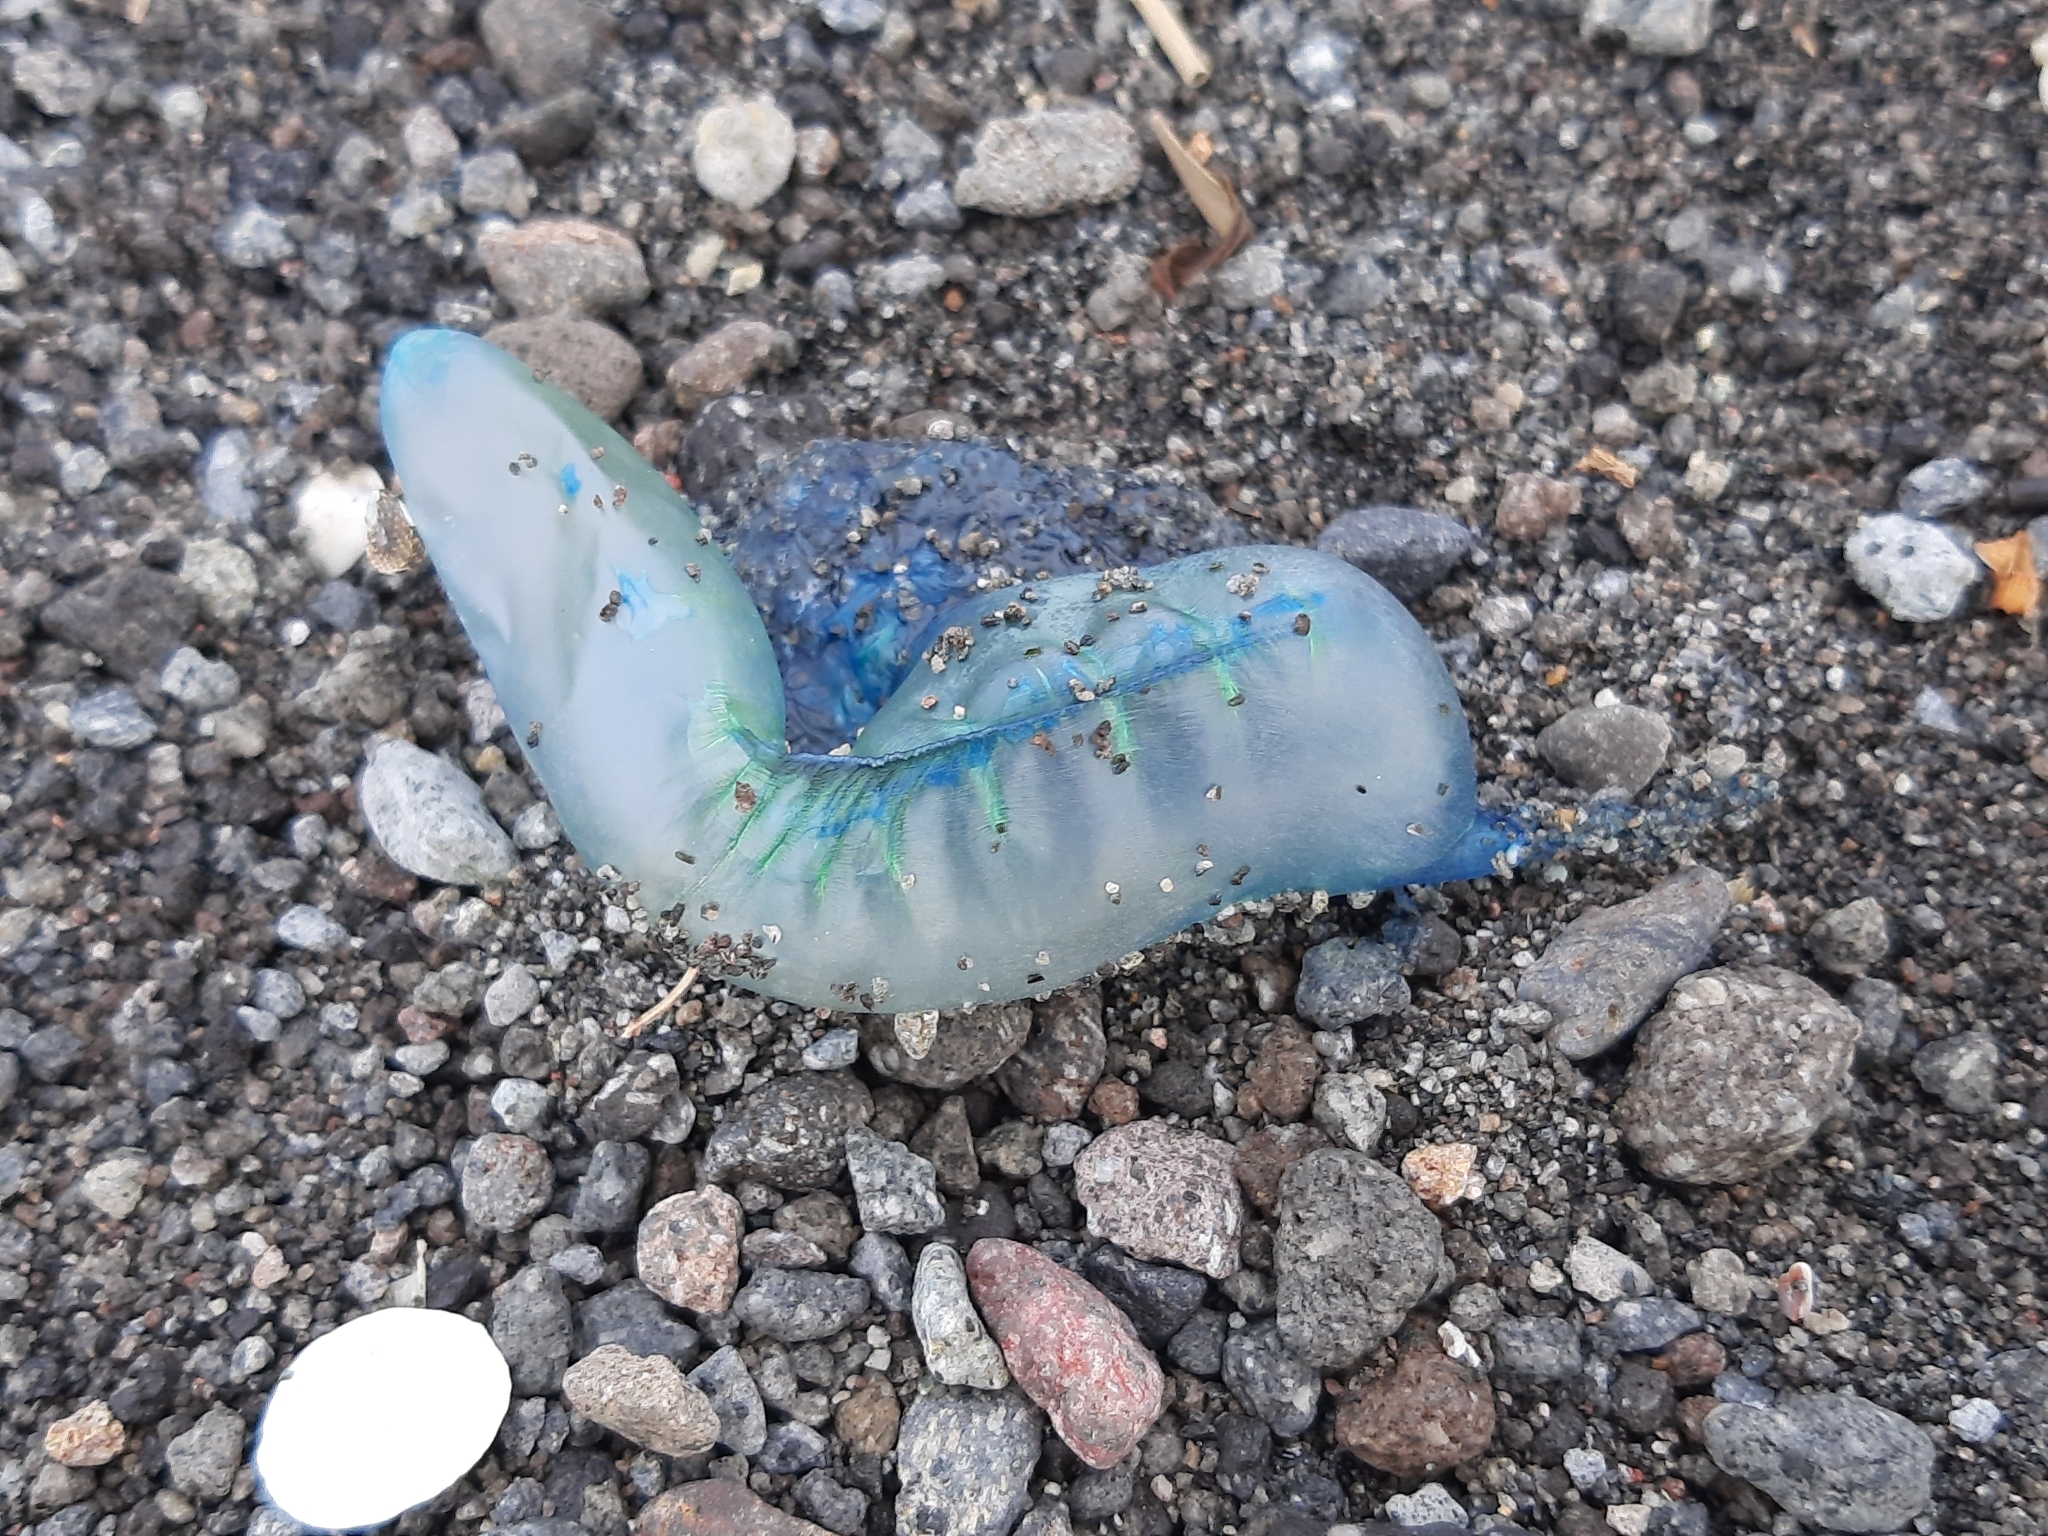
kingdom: Animalia
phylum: Cnidaria
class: Hydrozoa
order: Siphonophorae
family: Physaliidae
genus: Physalia
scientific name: Physalia physalis
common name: Portuguese man-of-war
